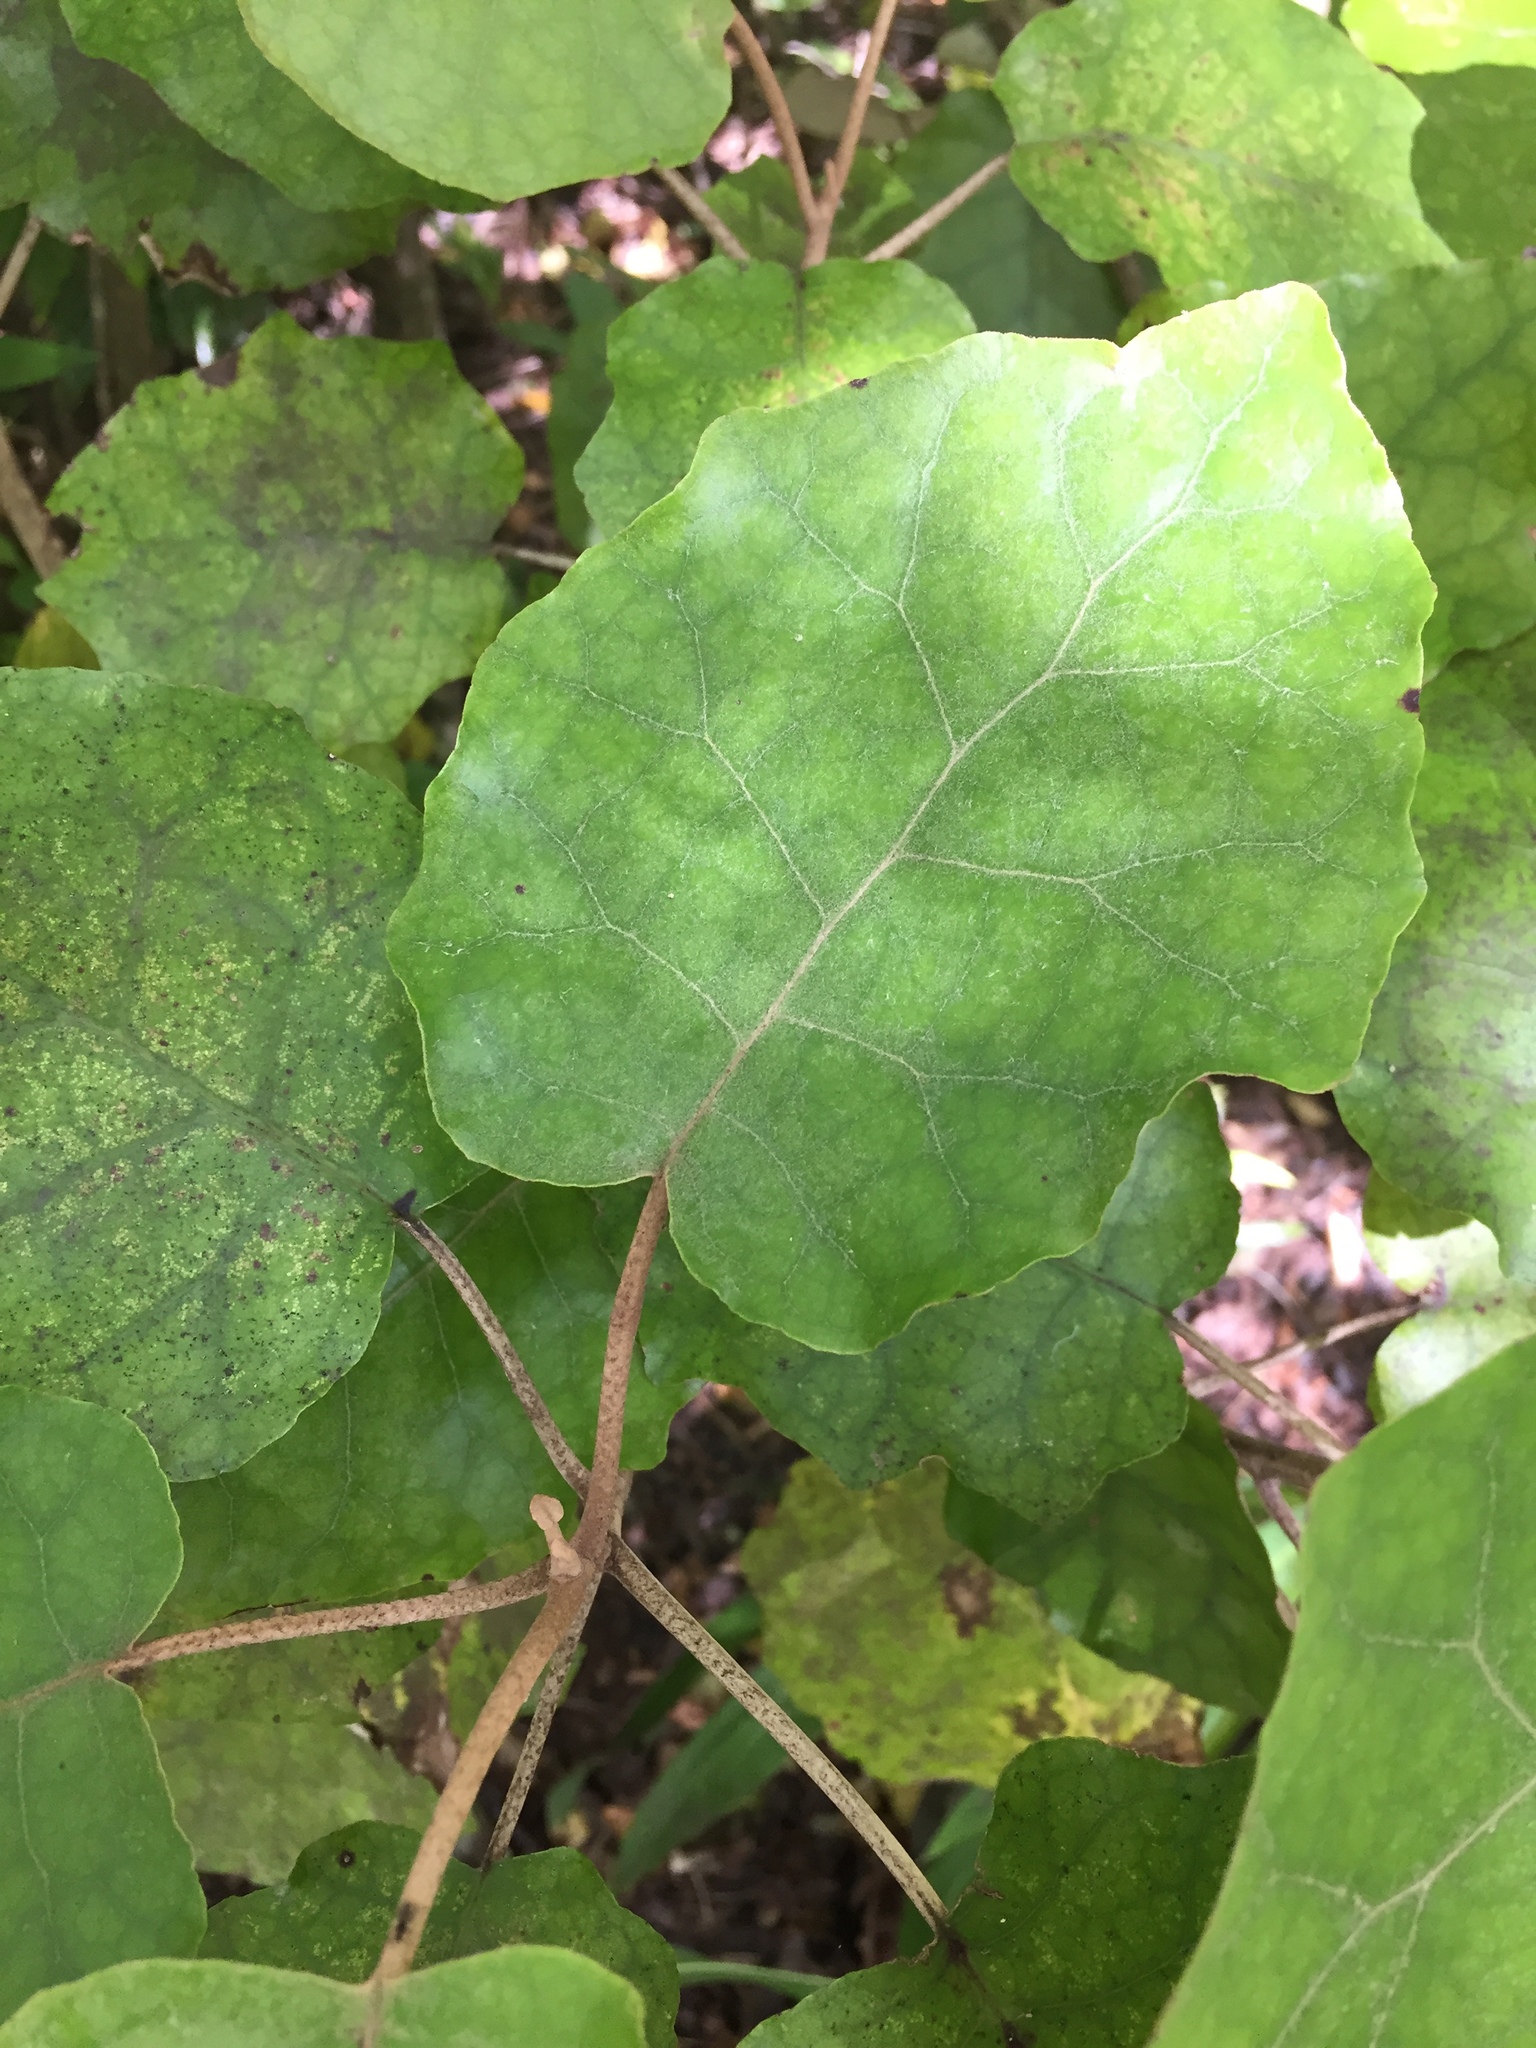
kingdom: Plantae
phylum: Tracheophyta
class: Magnoliopsida
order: Asterales
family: Asteraceae
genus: Brachyglottis
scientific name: Brachyglottis repanda
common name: Hedge ragwort
